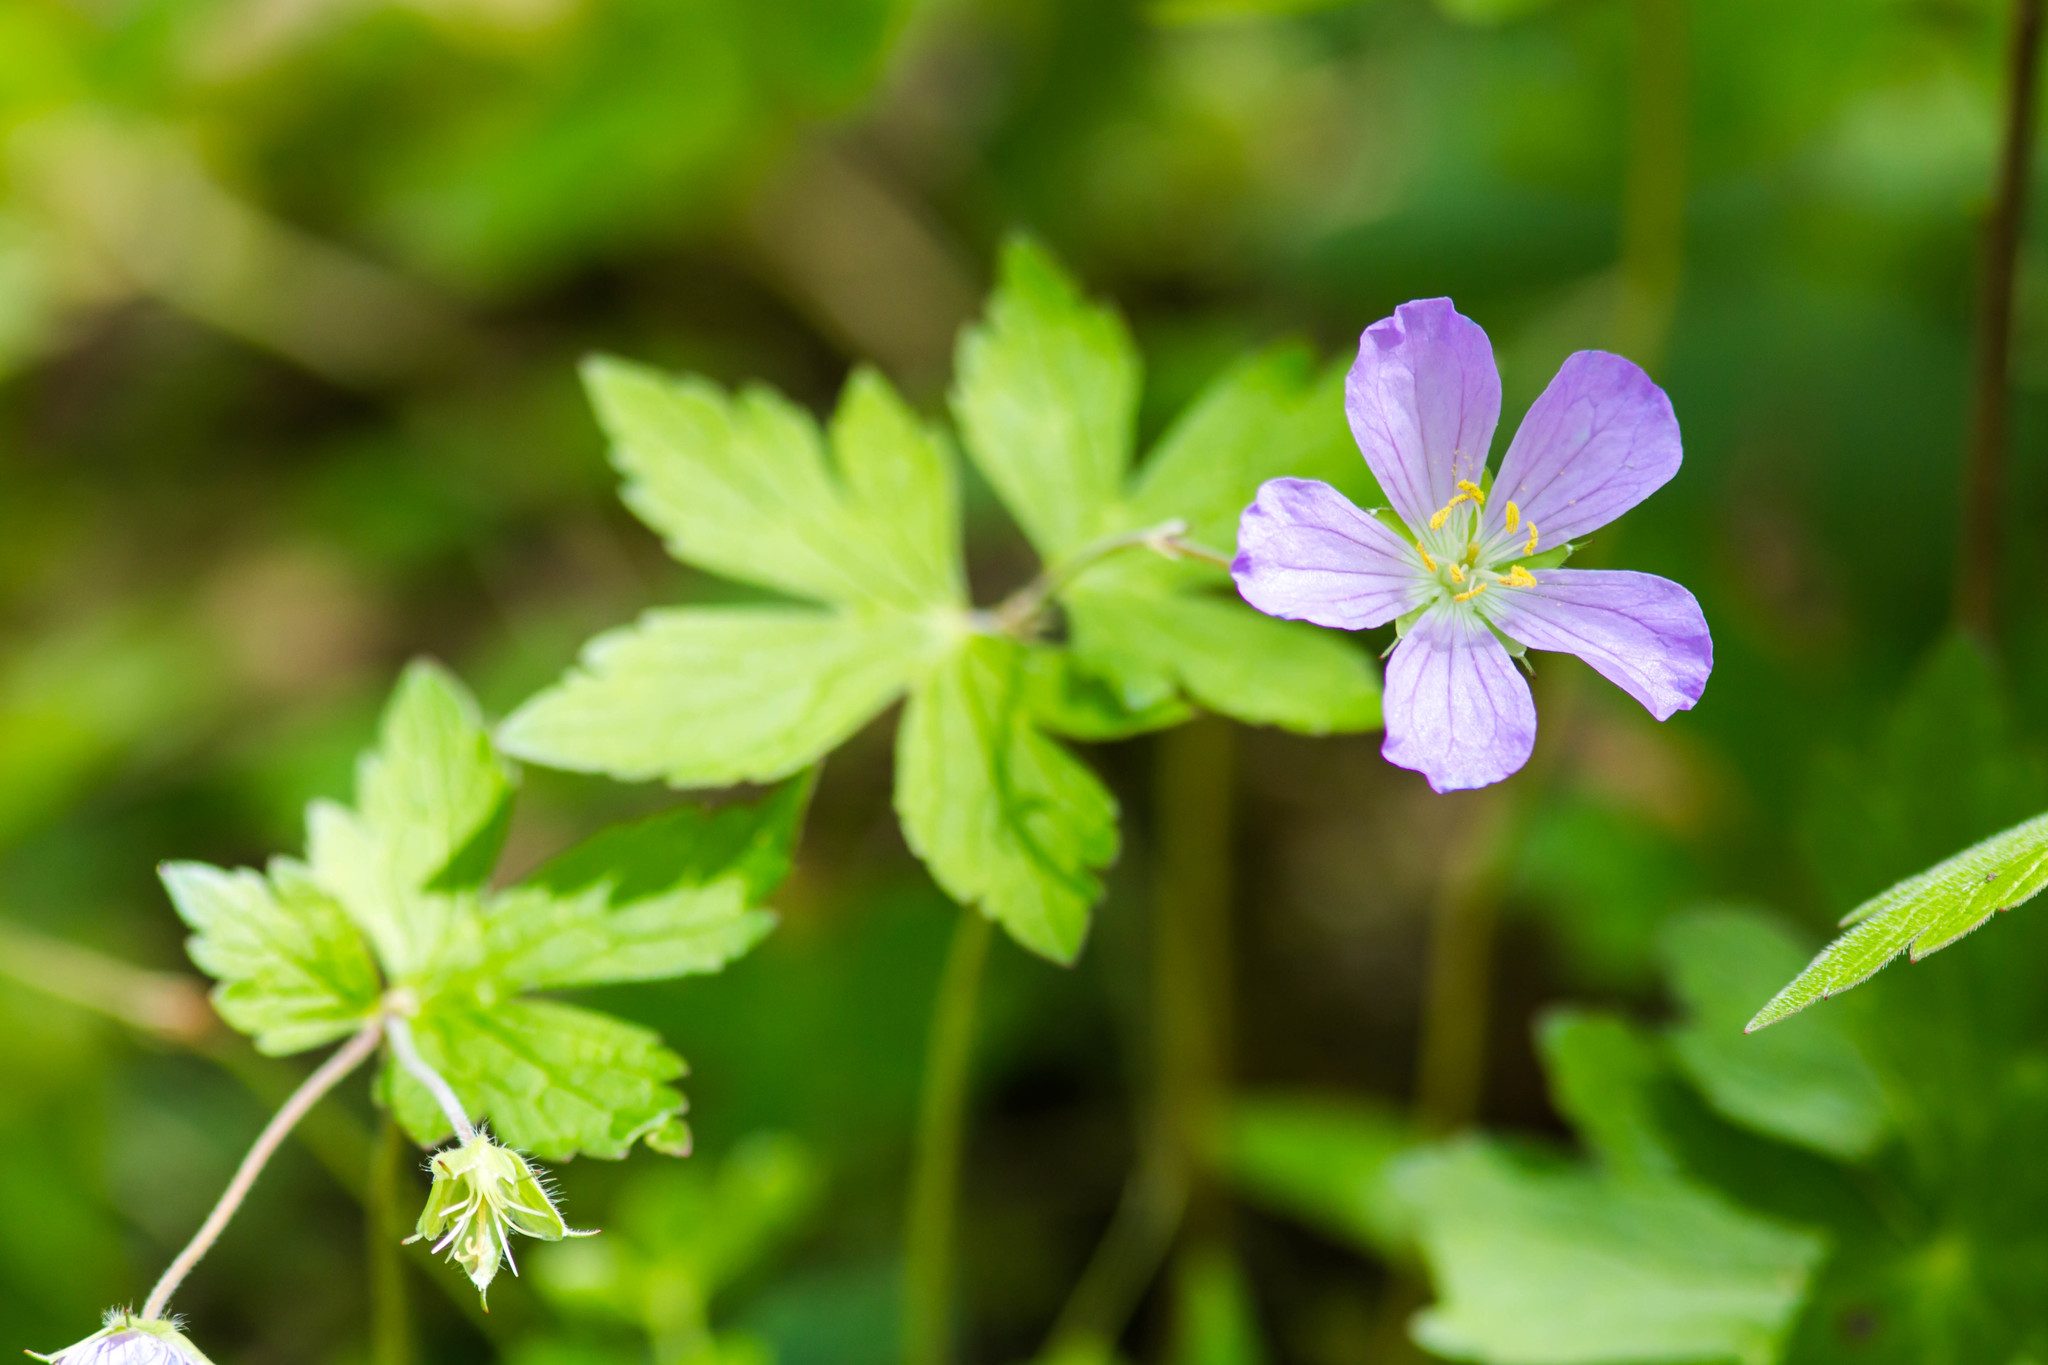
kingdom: Plantae
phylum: Tracheophyta
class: Magnoliopsida
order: Geraniales
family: Geraniaceae
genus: Geranium
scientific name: Geranium maculatum
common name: Spotted geranium
